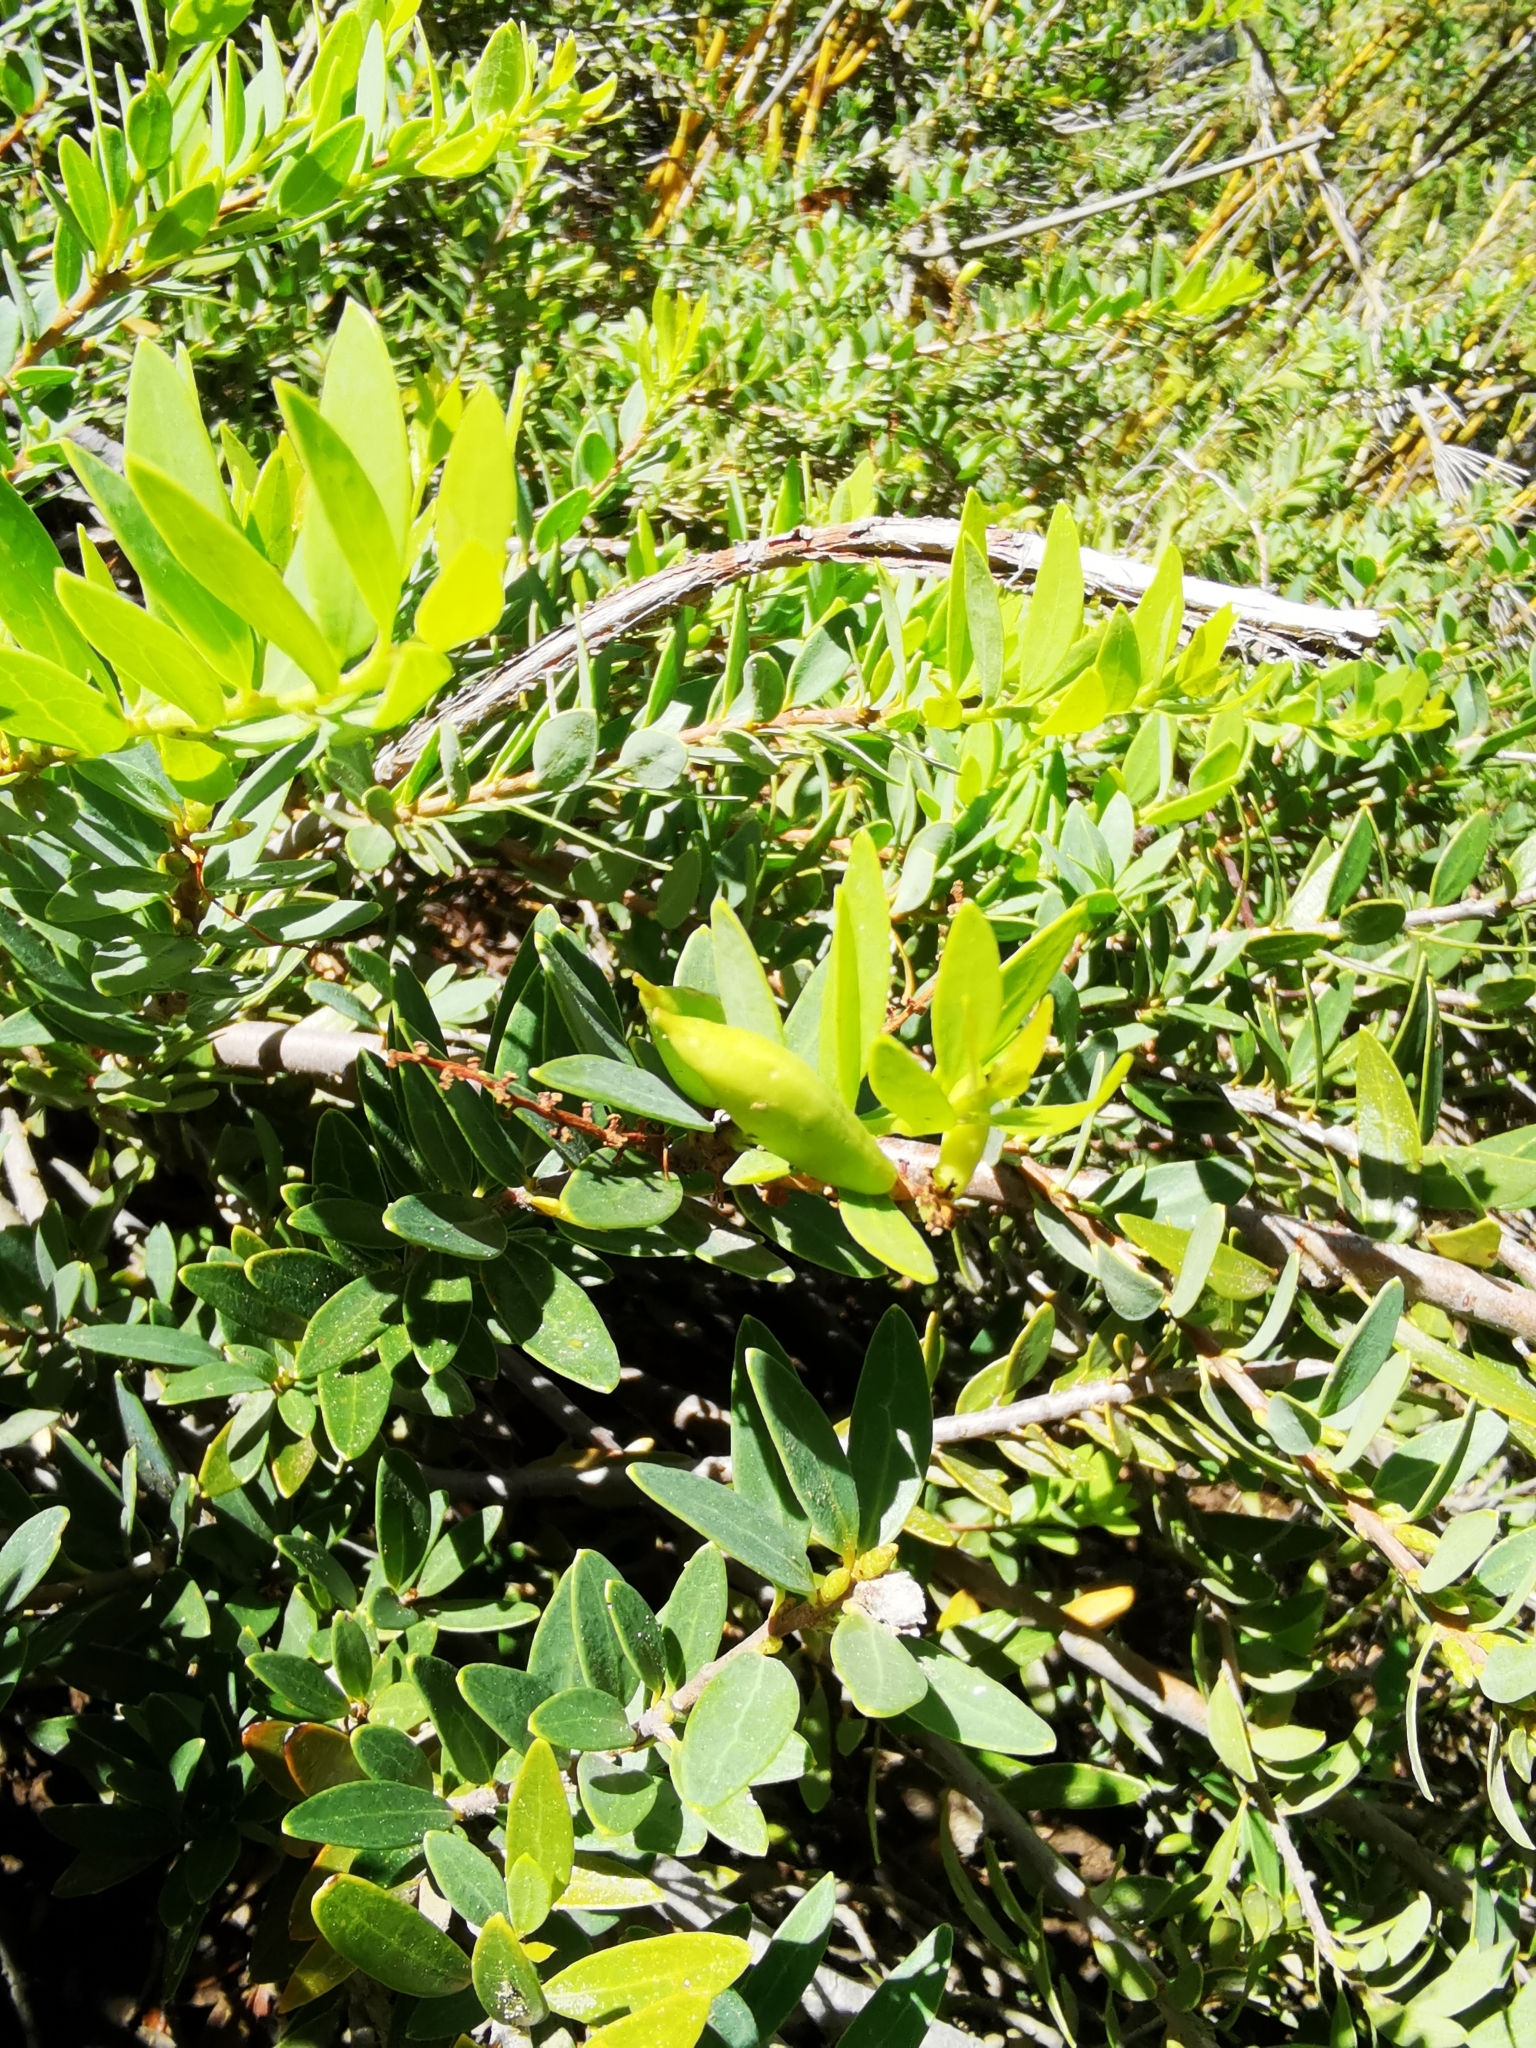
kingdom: Plantae
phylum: Tracheophyta
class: Magnoliopsida
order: Proteales
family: Proteaceae
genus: Orites
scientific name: Orites myrtoideus
